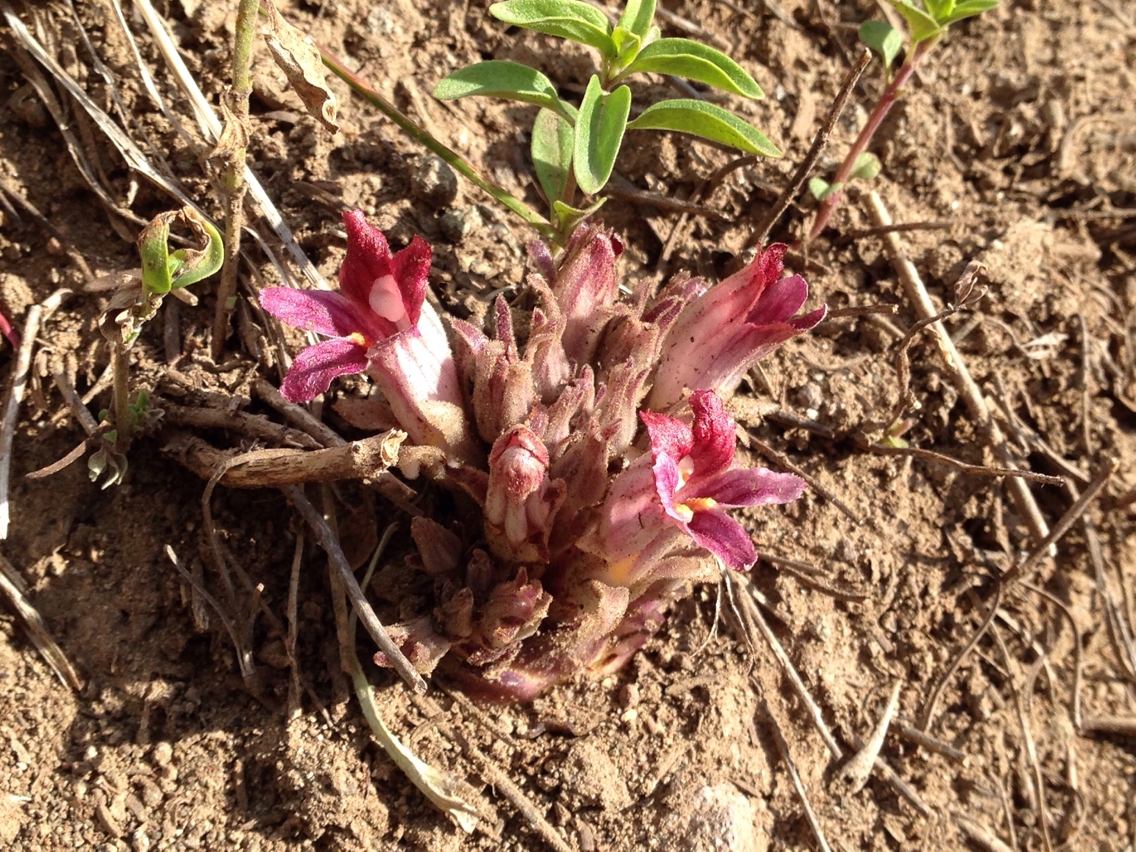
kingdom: Plantae
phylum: Tracheophyta
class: Magnoliopsida
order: Lamiales
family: Orobanchaceae
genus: Aphyllon
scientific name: Aphyllon corymbosum
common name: Flat-top broomrape
